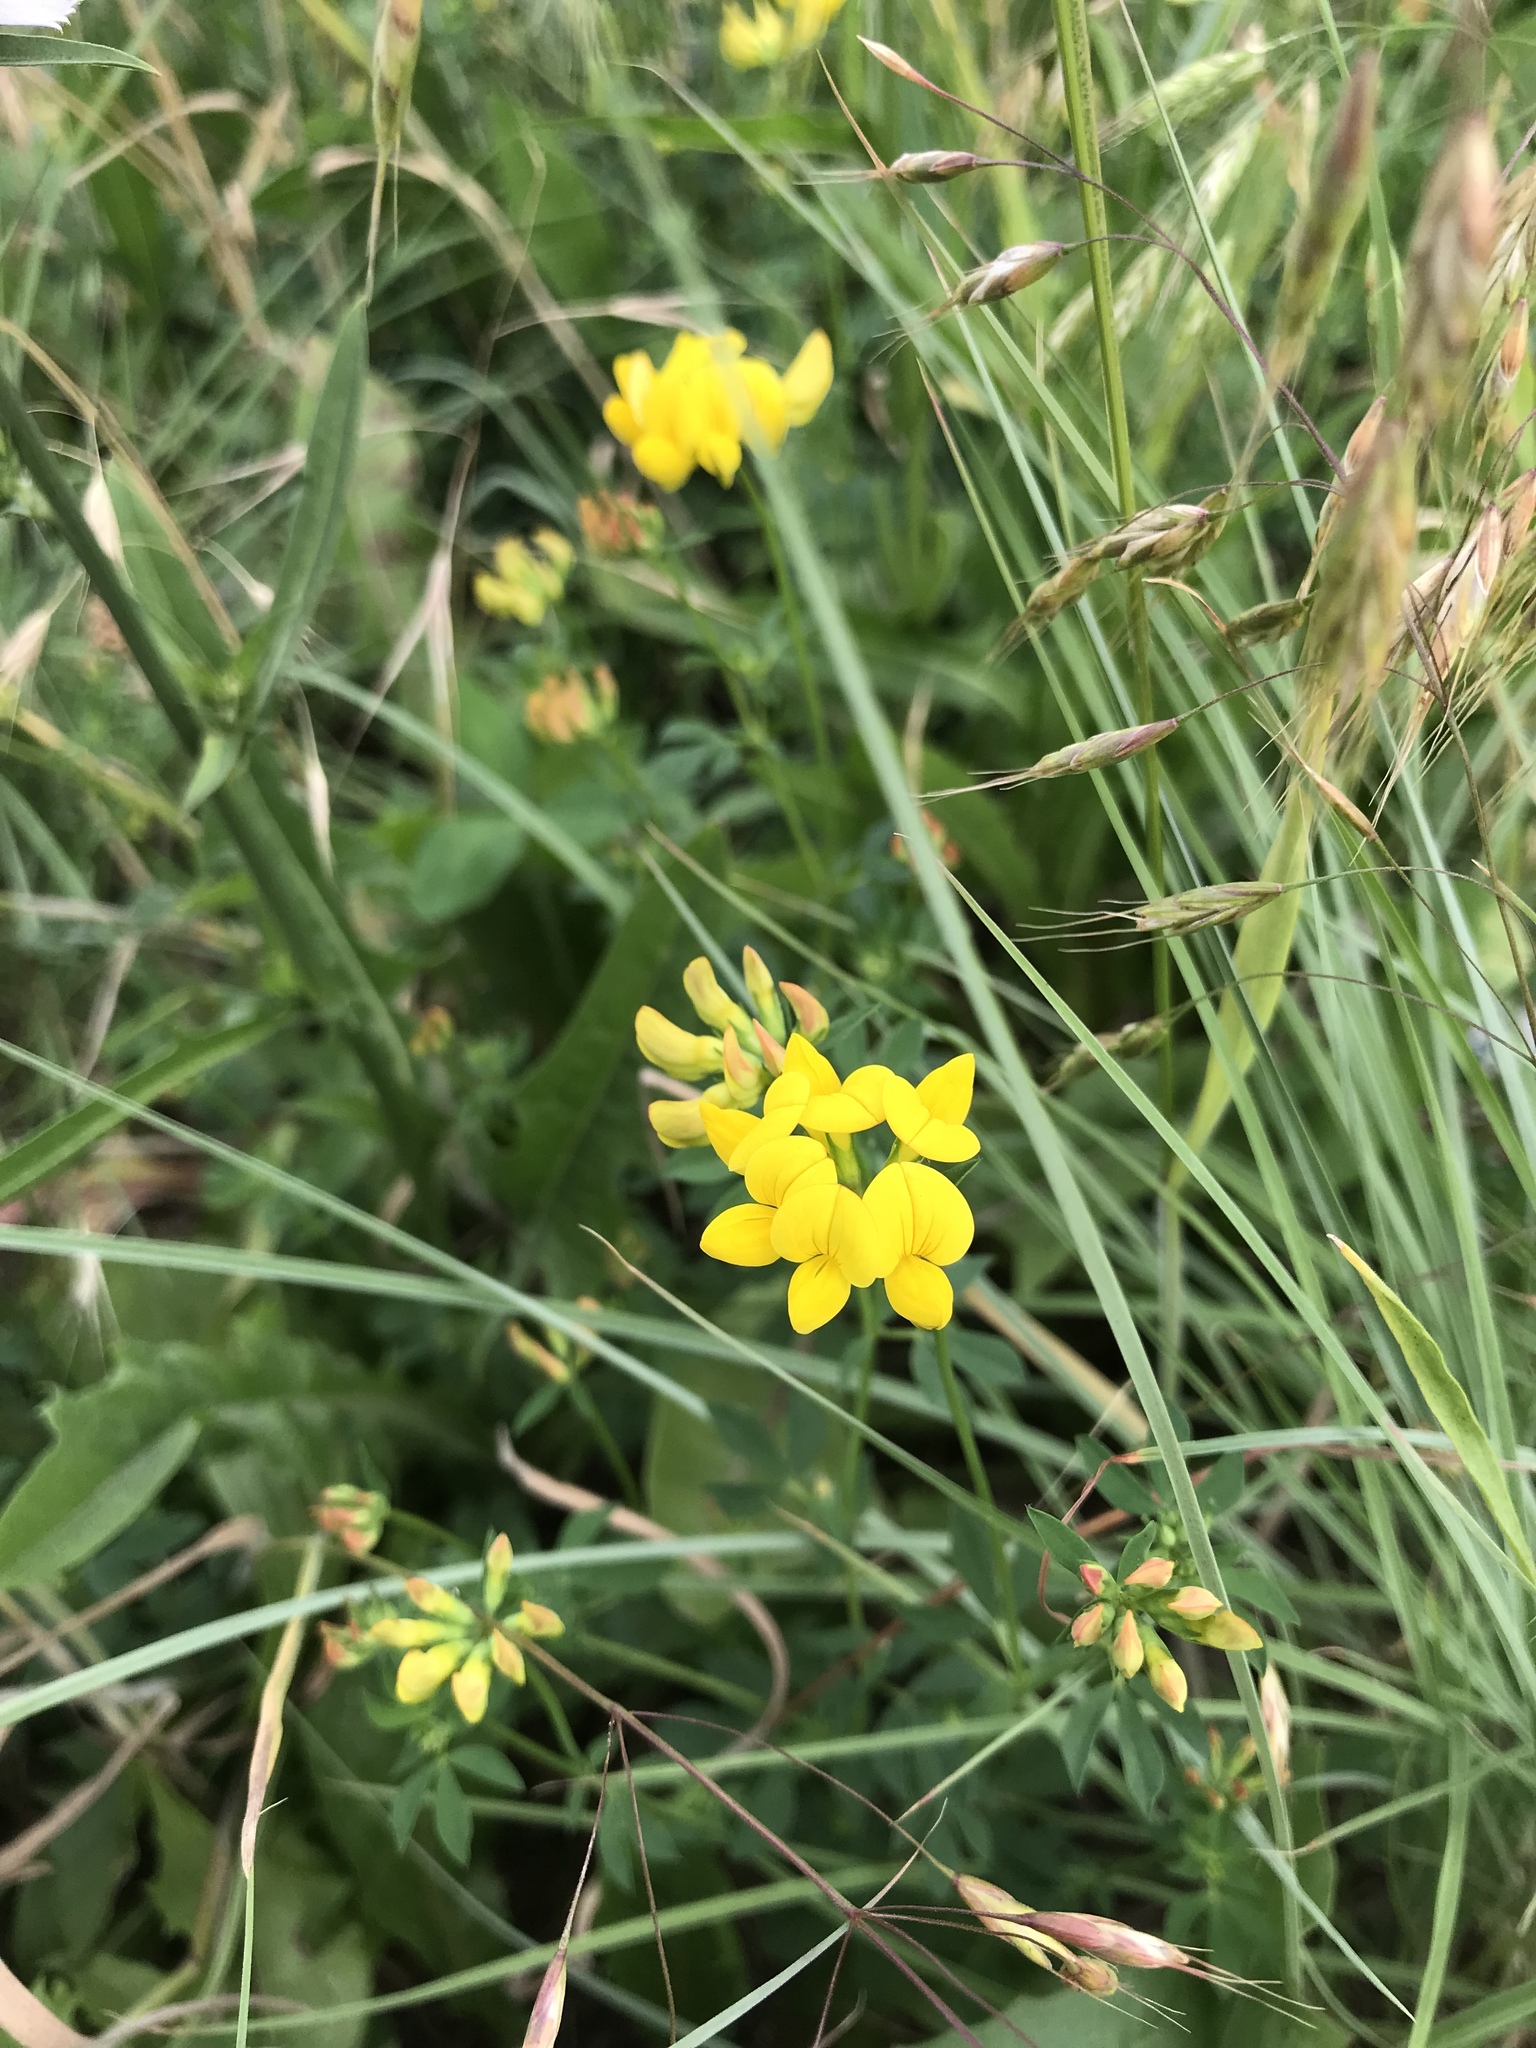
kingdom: Plantae
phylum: Tracheophyta
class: Magnoliopsida
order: Fabales
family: Fabaceae
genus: Lotus
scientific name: Lotus corniculatus
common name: Common bird's-foot-trefoil
